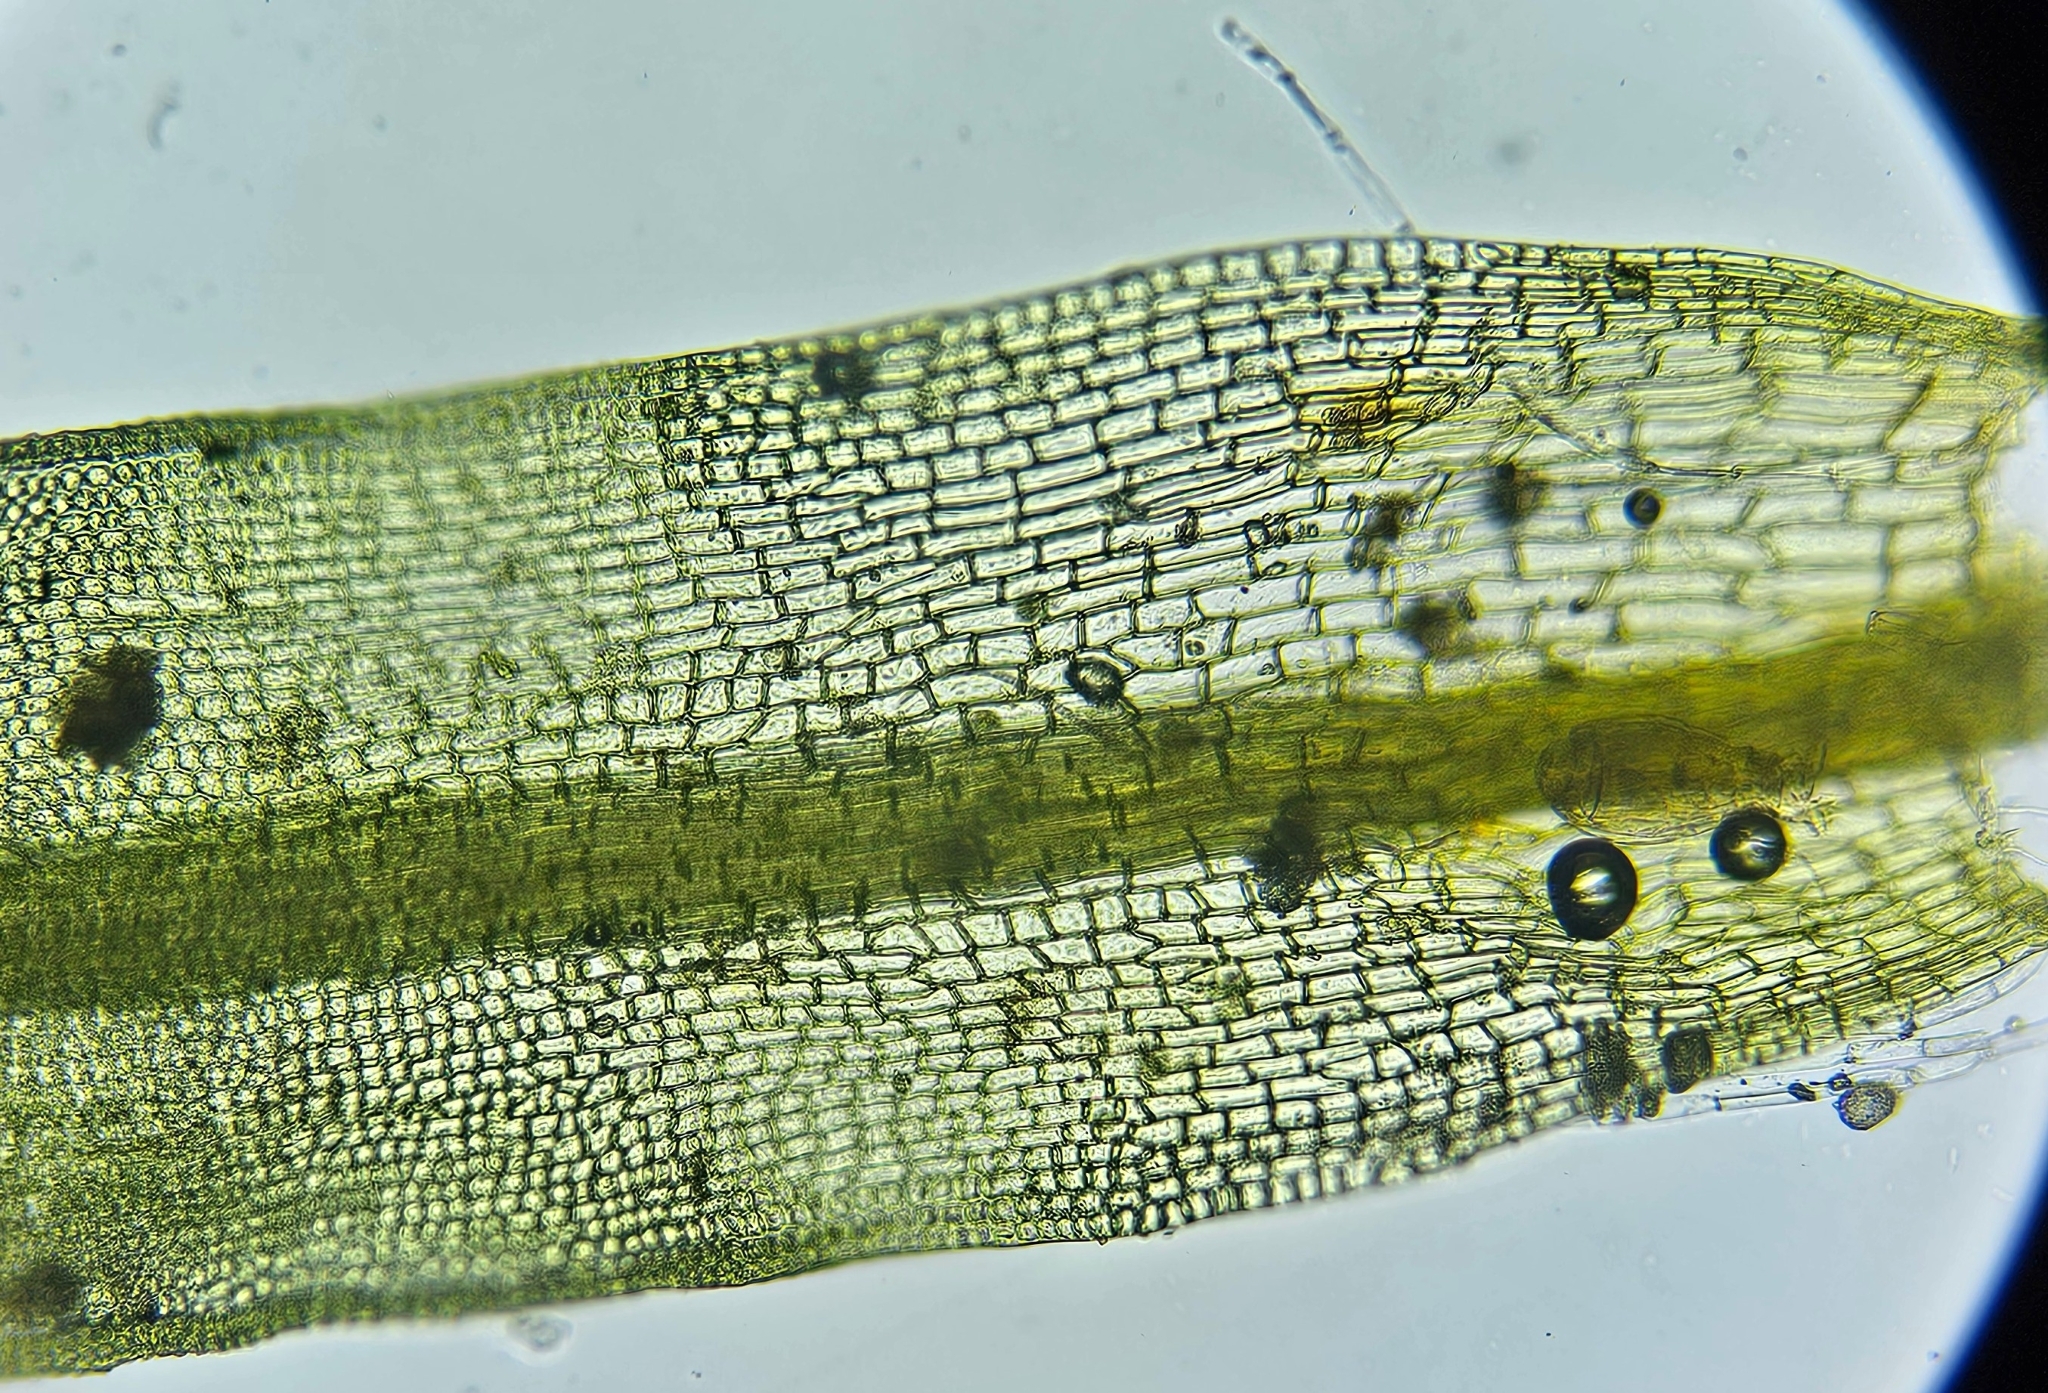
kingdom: Plantae
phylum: Bryophyta
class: Bryopsida
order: Pottiales
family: Pottiaceae
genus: Tortula
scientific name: Tortula muralis
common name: Wall screw-moss
